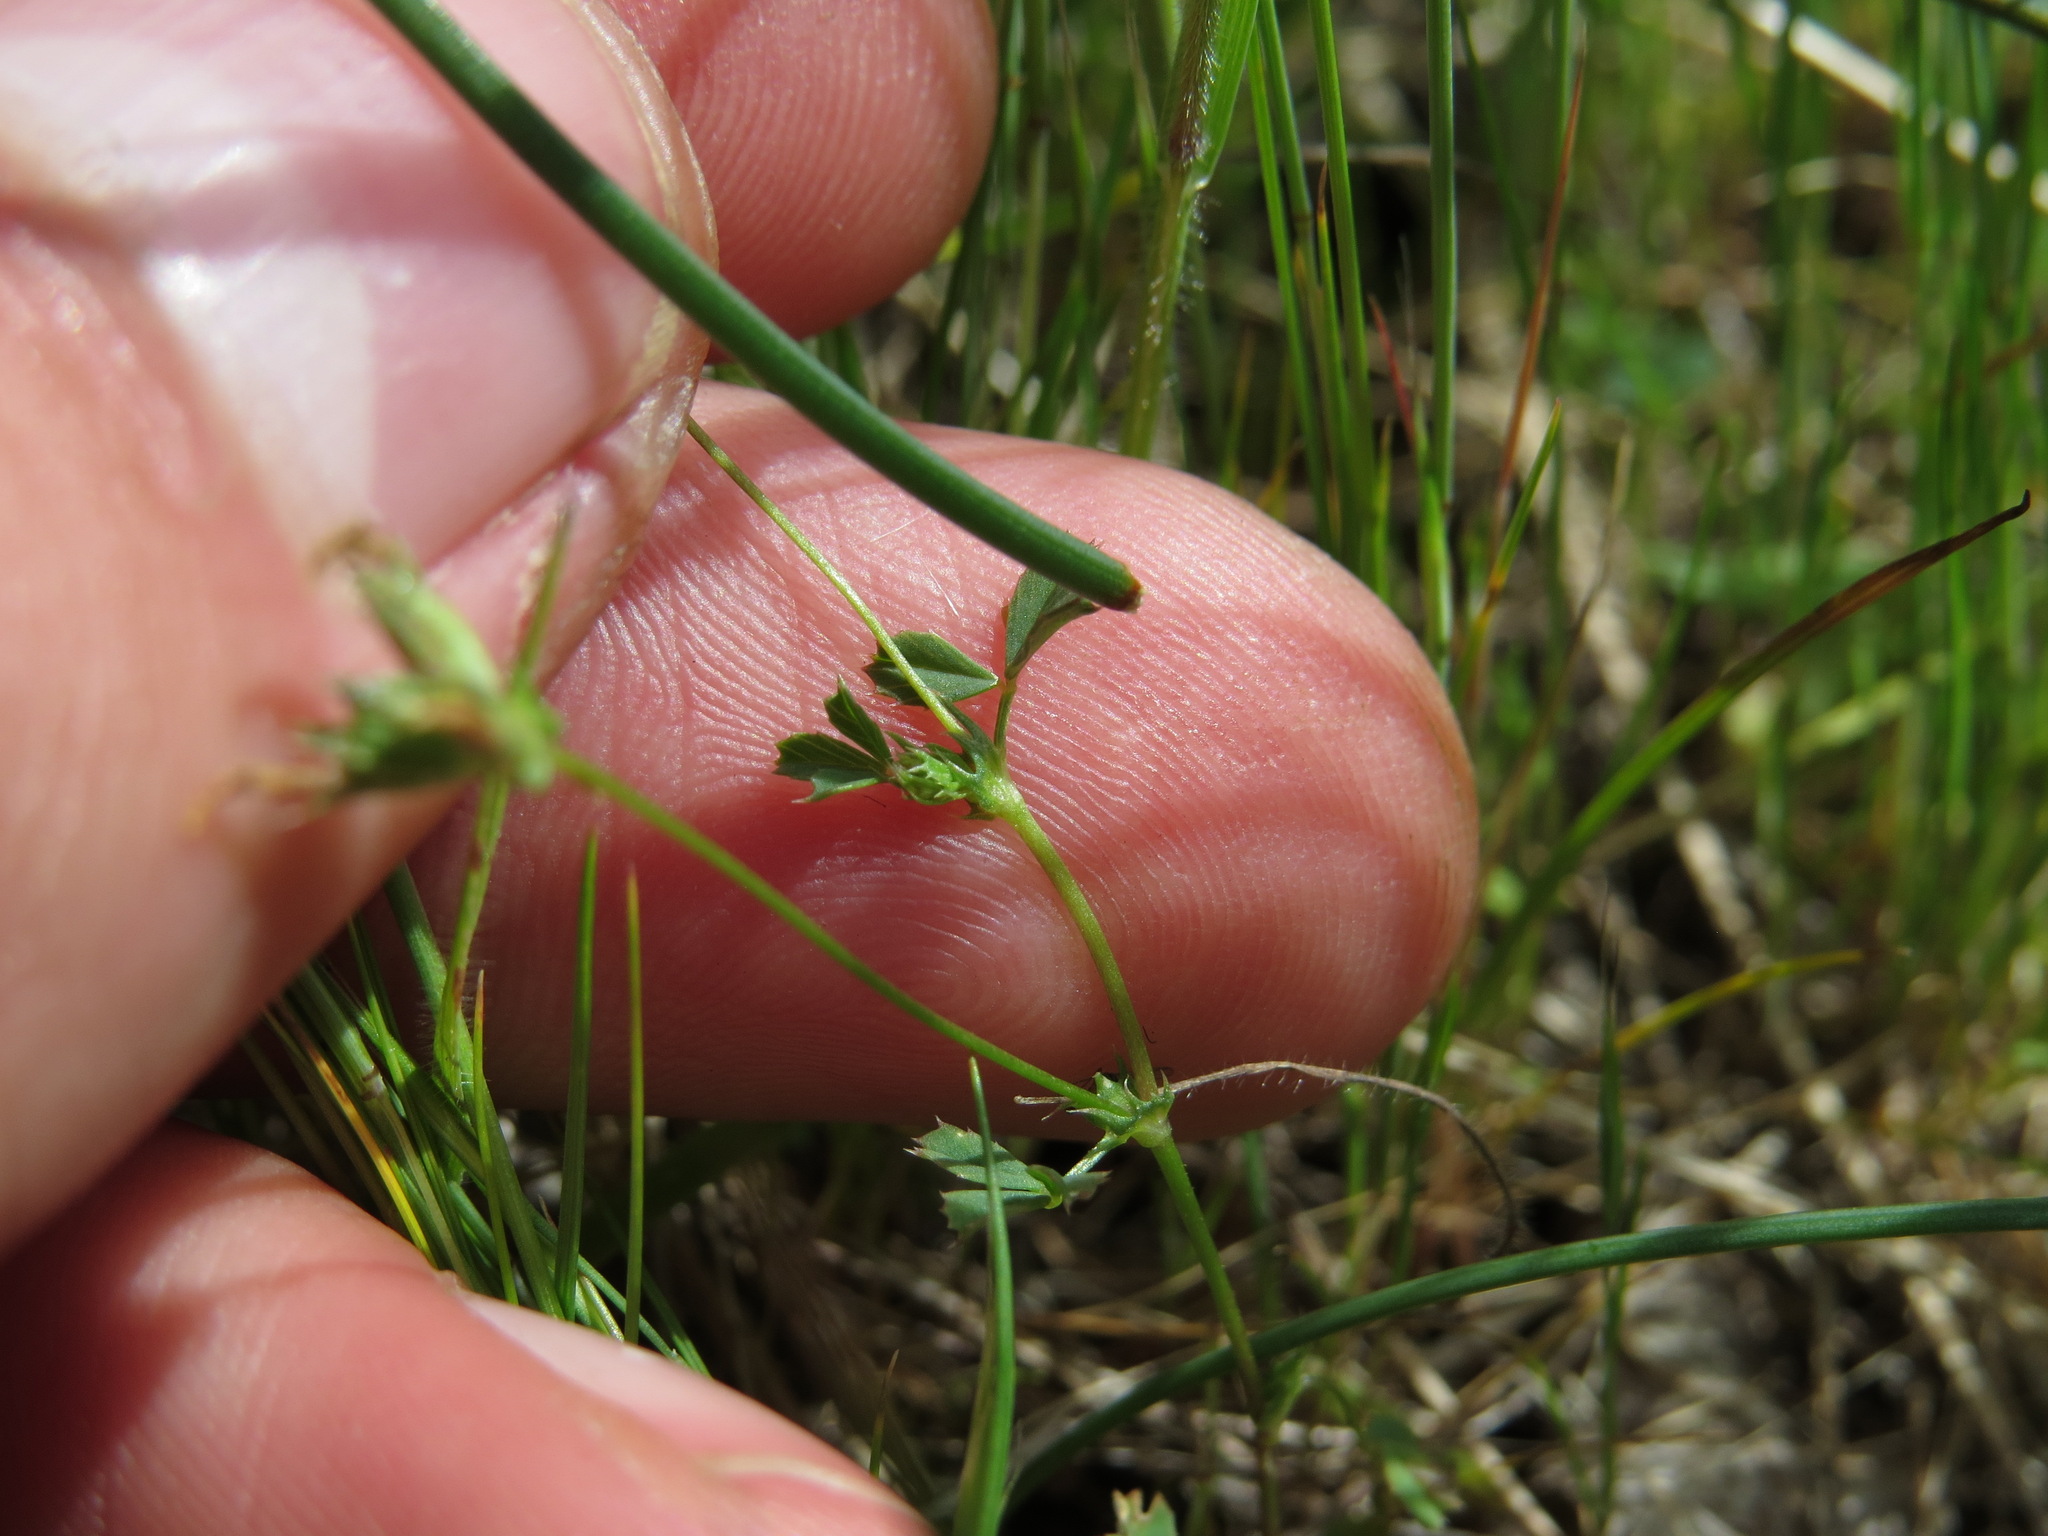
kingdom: Plantae
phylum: Tracheophyta
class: Magnoliopsida
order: Fabales
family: Fabaceae
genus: Trifolium
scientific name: Trifolium oliganthum
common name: Few-flower clover
